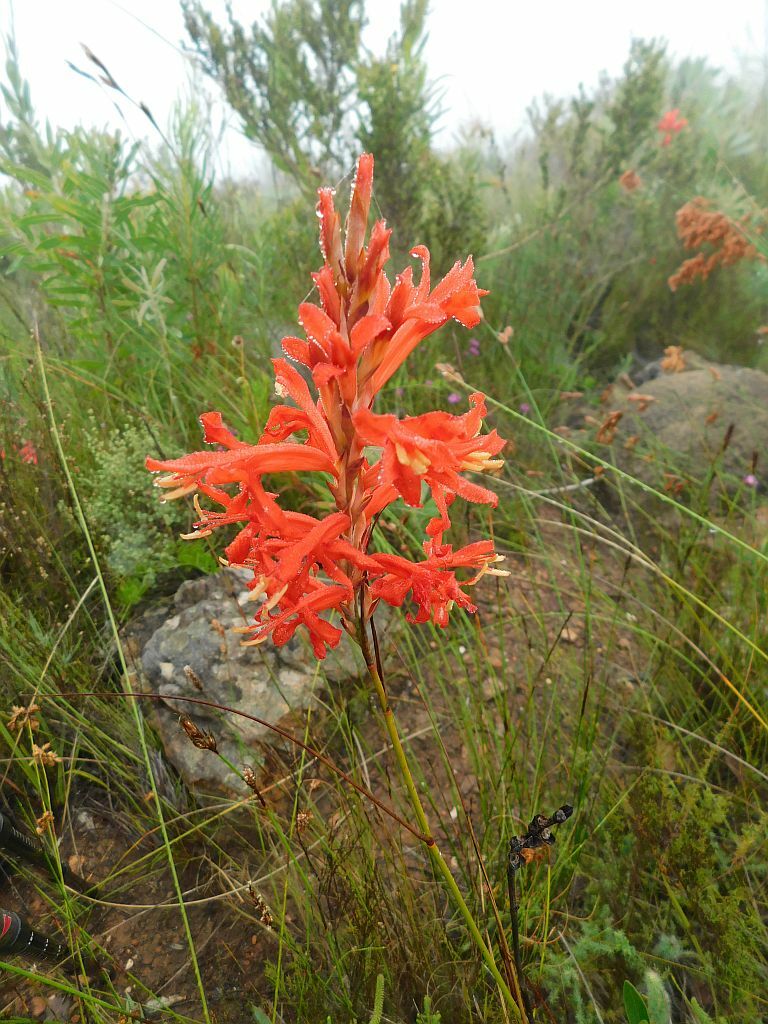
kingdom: Plantae
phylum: Tracheophyta
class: Liliopsida
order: Asparagales
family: Iridaceae
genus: Tritoniopsis
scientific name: Tritoniopsis triticea
